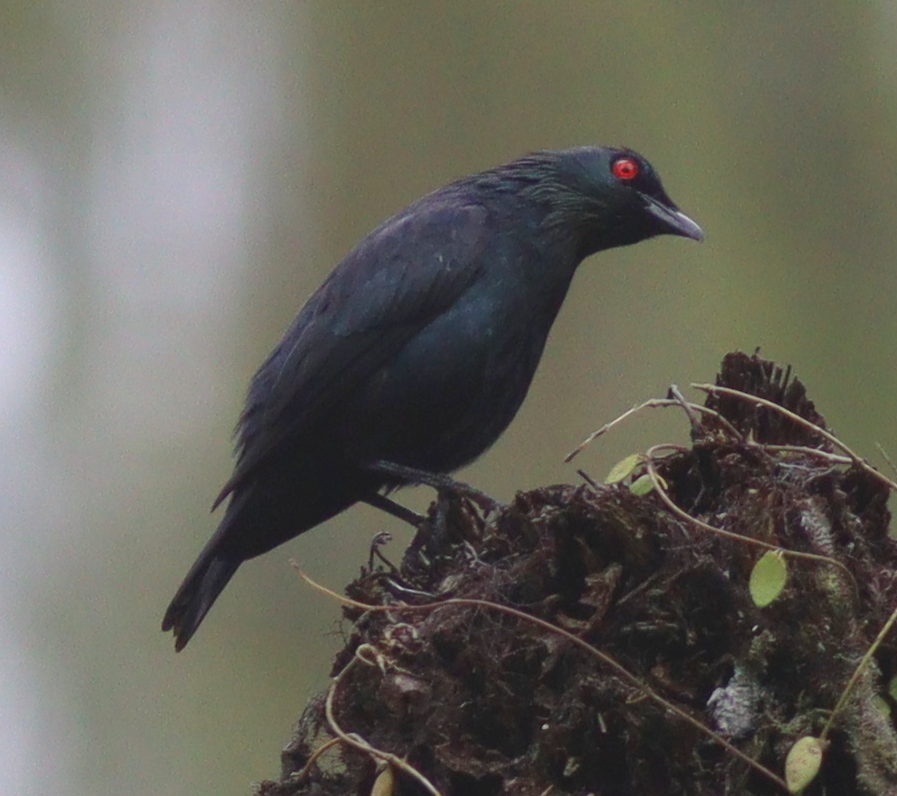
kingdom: Animalia
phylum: Chordata
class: Aves
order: Passeriformes
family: Sturnidae
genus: Aplonis
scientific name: Aplonis minor
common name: Short-tailed starling
